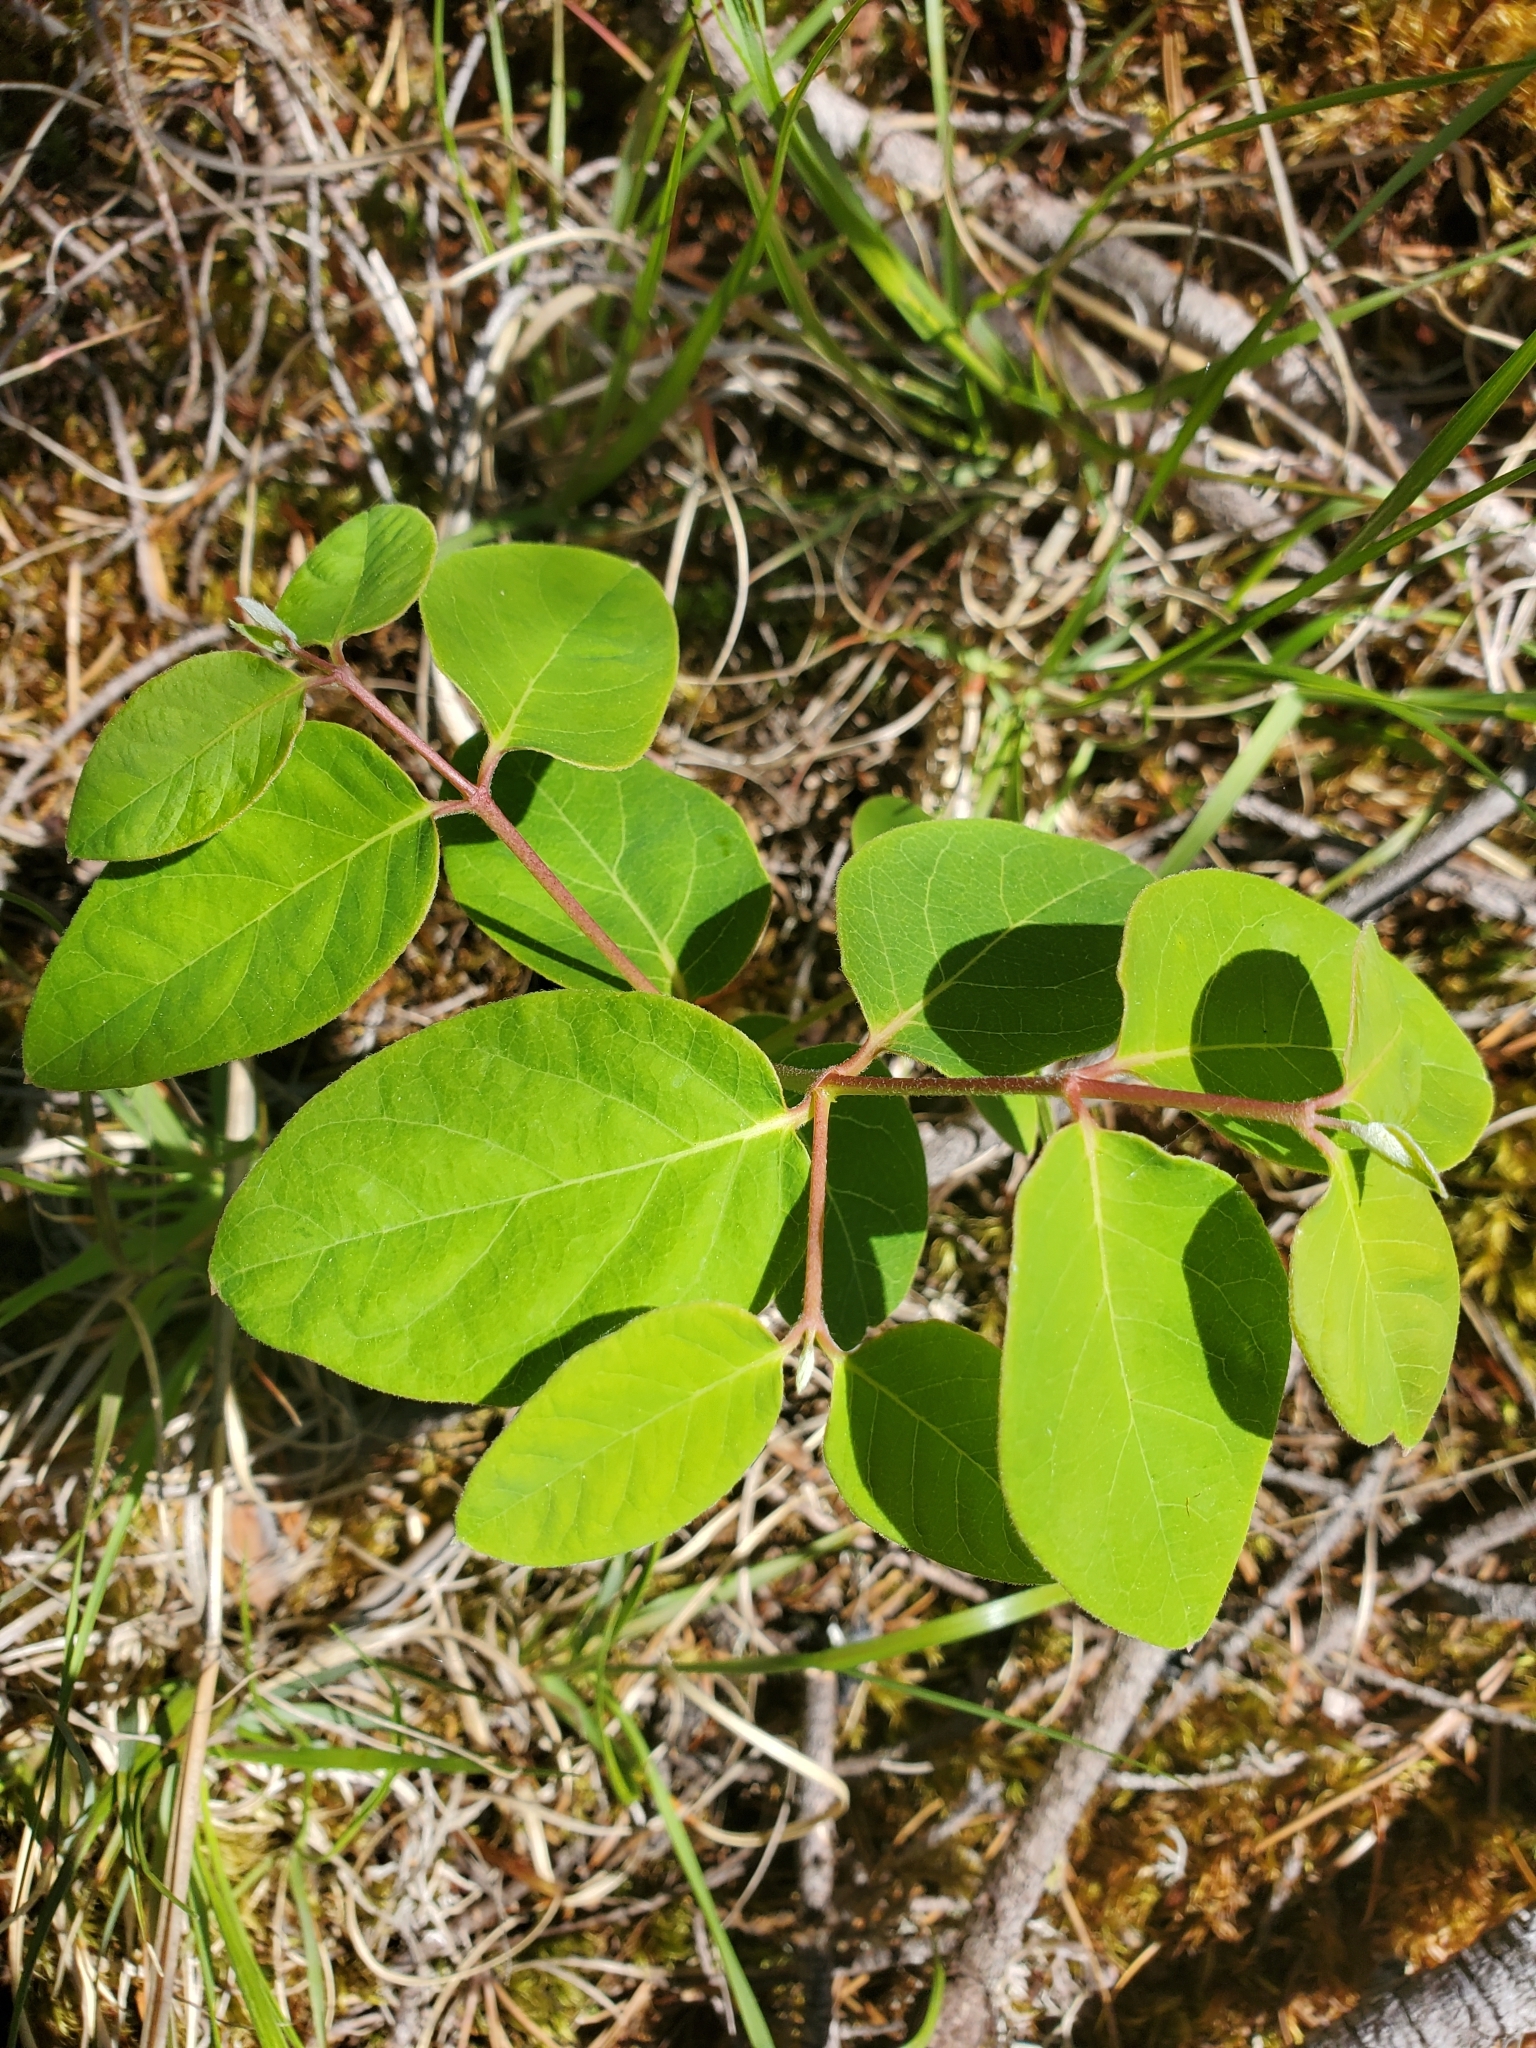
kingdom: Plantae
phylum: Tracheophyta
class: Magnoliopsida
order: Gentianales
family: Apocynaceae
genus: Apocynum
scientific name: Apocynum androsaemifolium
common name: Spreading dogbane
